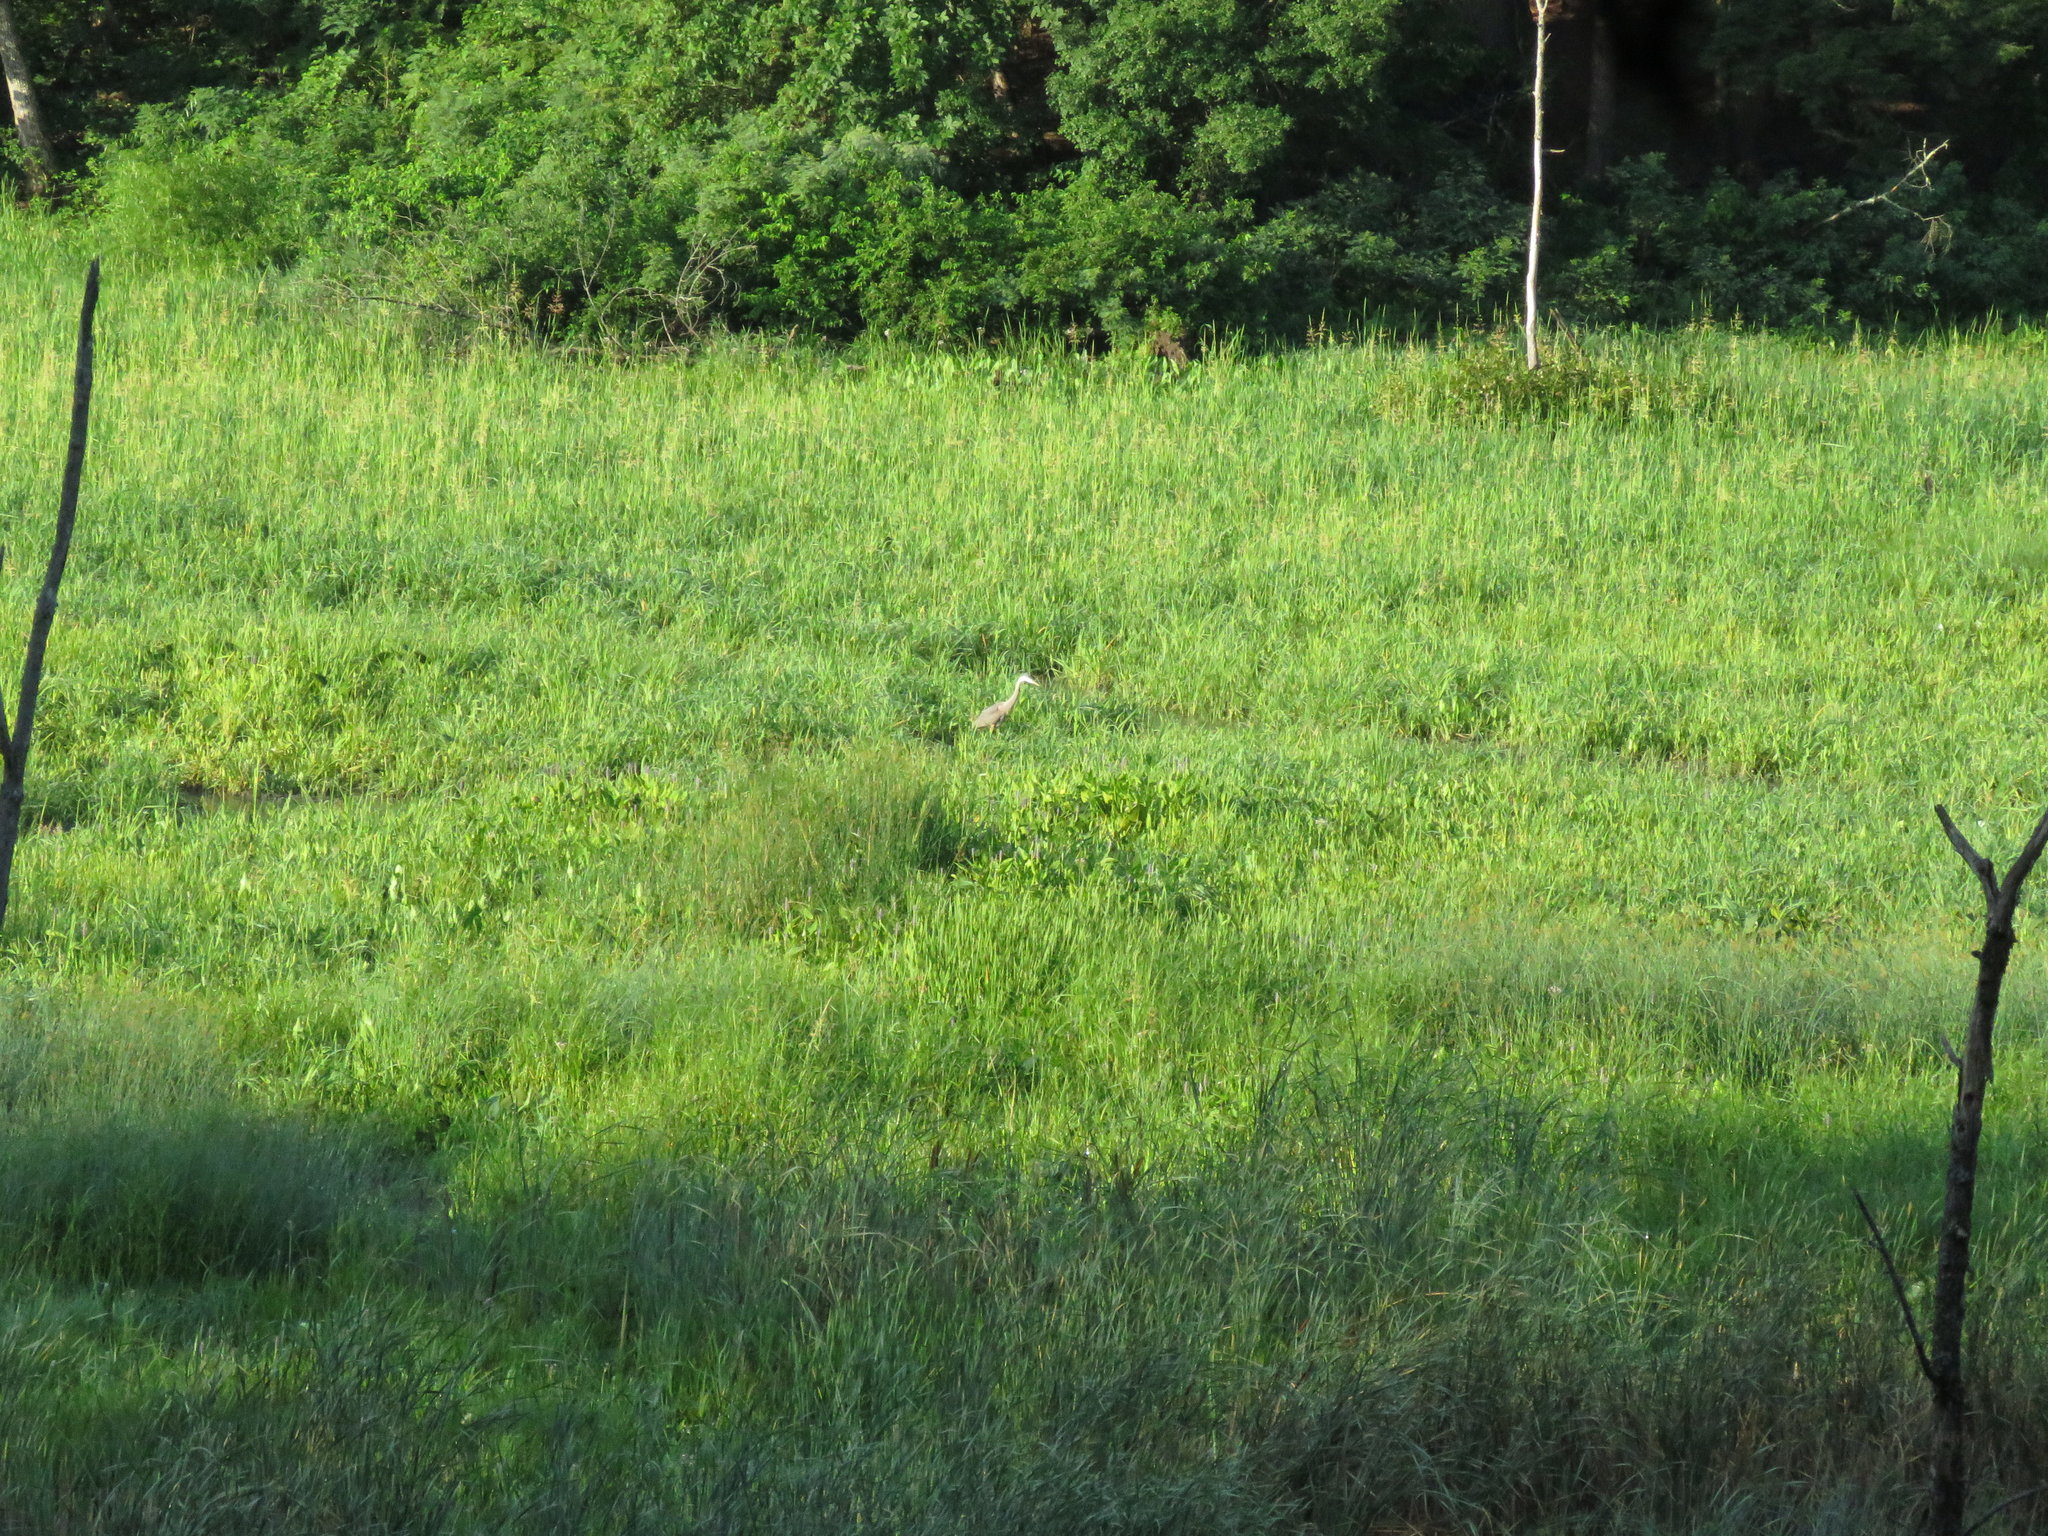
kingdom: Animalia
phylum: Chordata
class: Aves
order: Pelecaniformes
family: Ardeidae
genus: Ardea
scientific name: Ardea herodias
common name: Great blue heron
